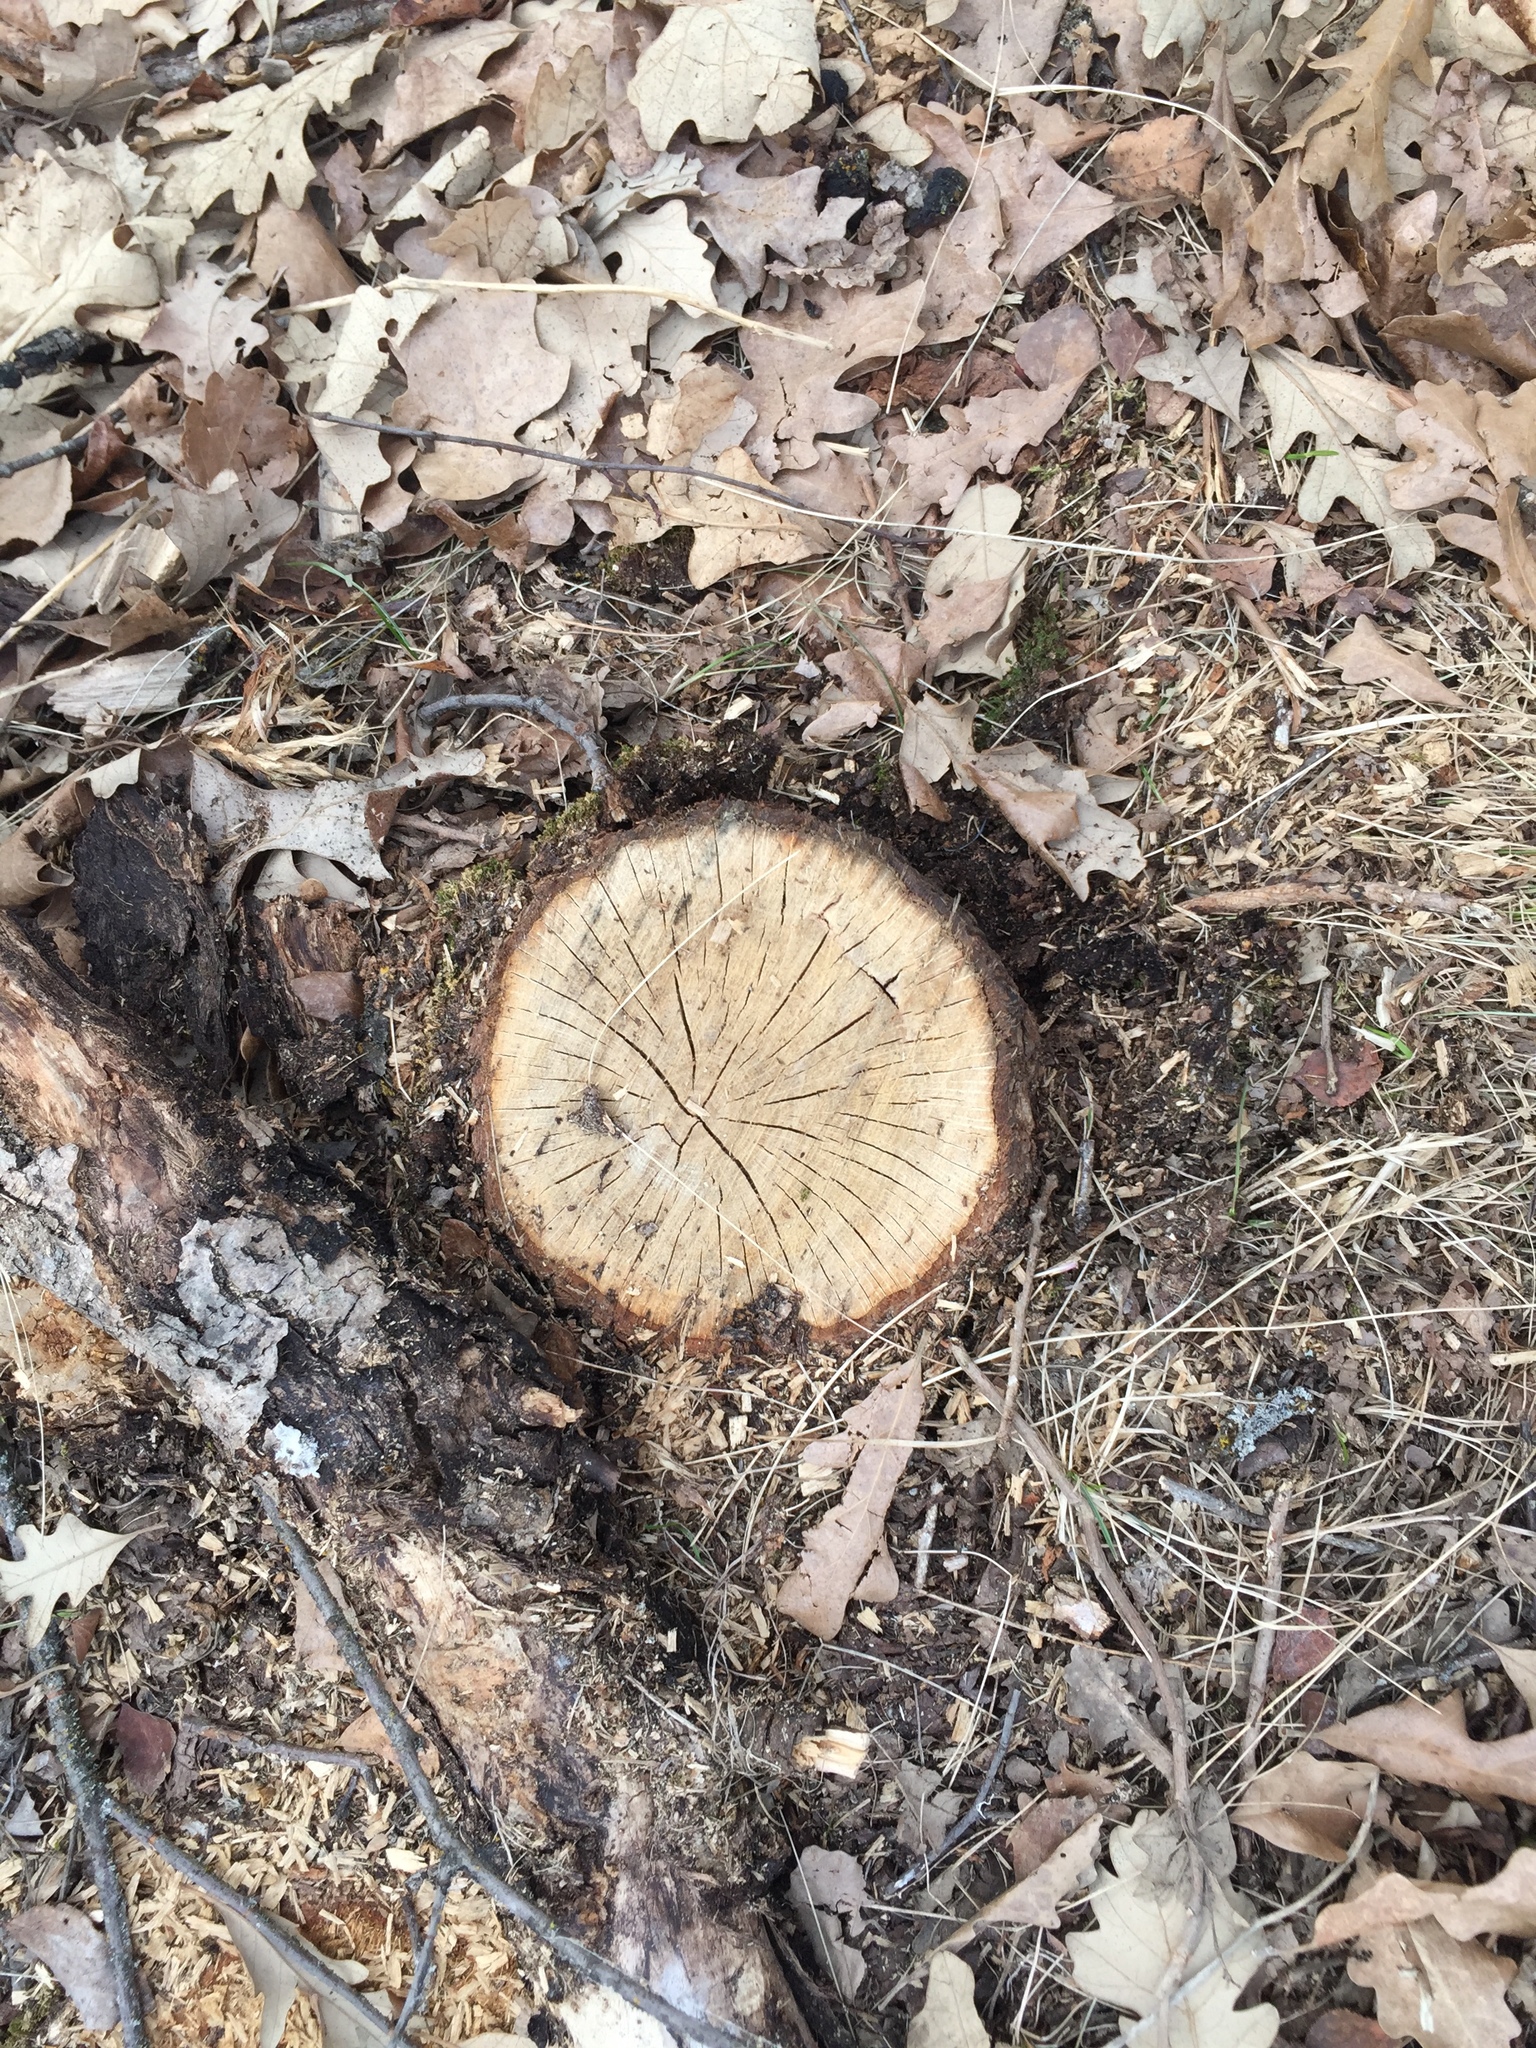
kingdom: Plantae
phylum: Tracheophyta
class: Magnoliopsida
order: Fagales
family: Fagaceae
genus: Quercus
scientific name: Quercus macrocarpa
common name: Bur oak
